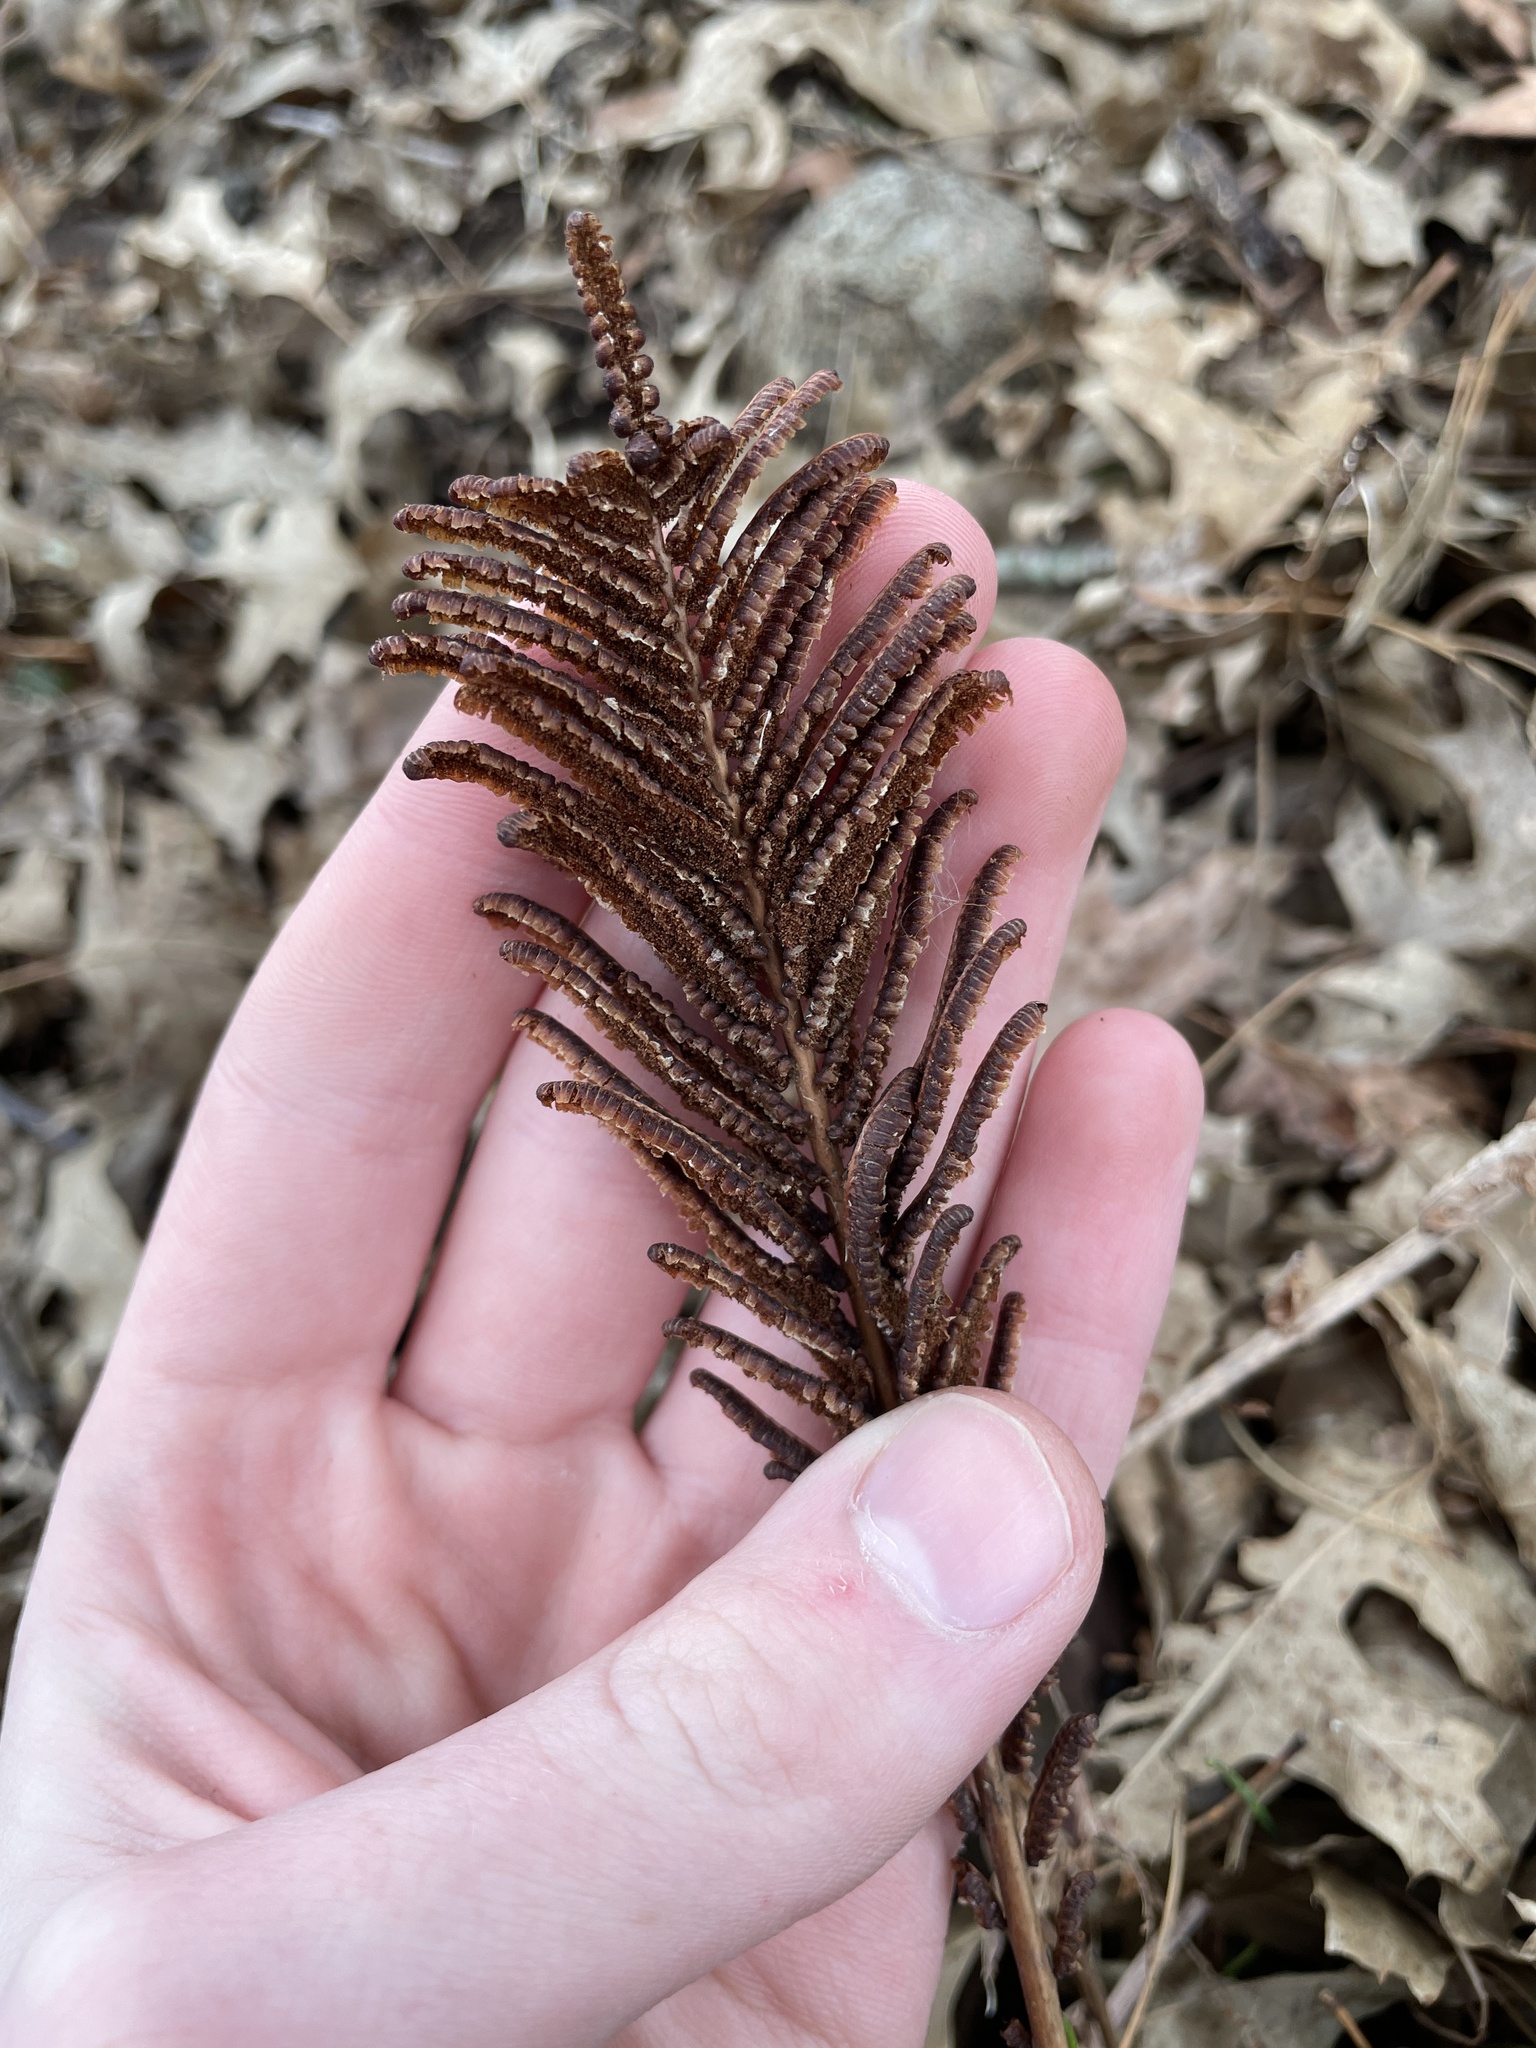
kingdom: Plantae
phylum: Tracheophyta
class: Polypodiopsida
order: Polypodiales
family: Onocleaceae
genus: Matteuccia
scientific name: Matteuccia struthiopteris
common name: Ostrich fern
